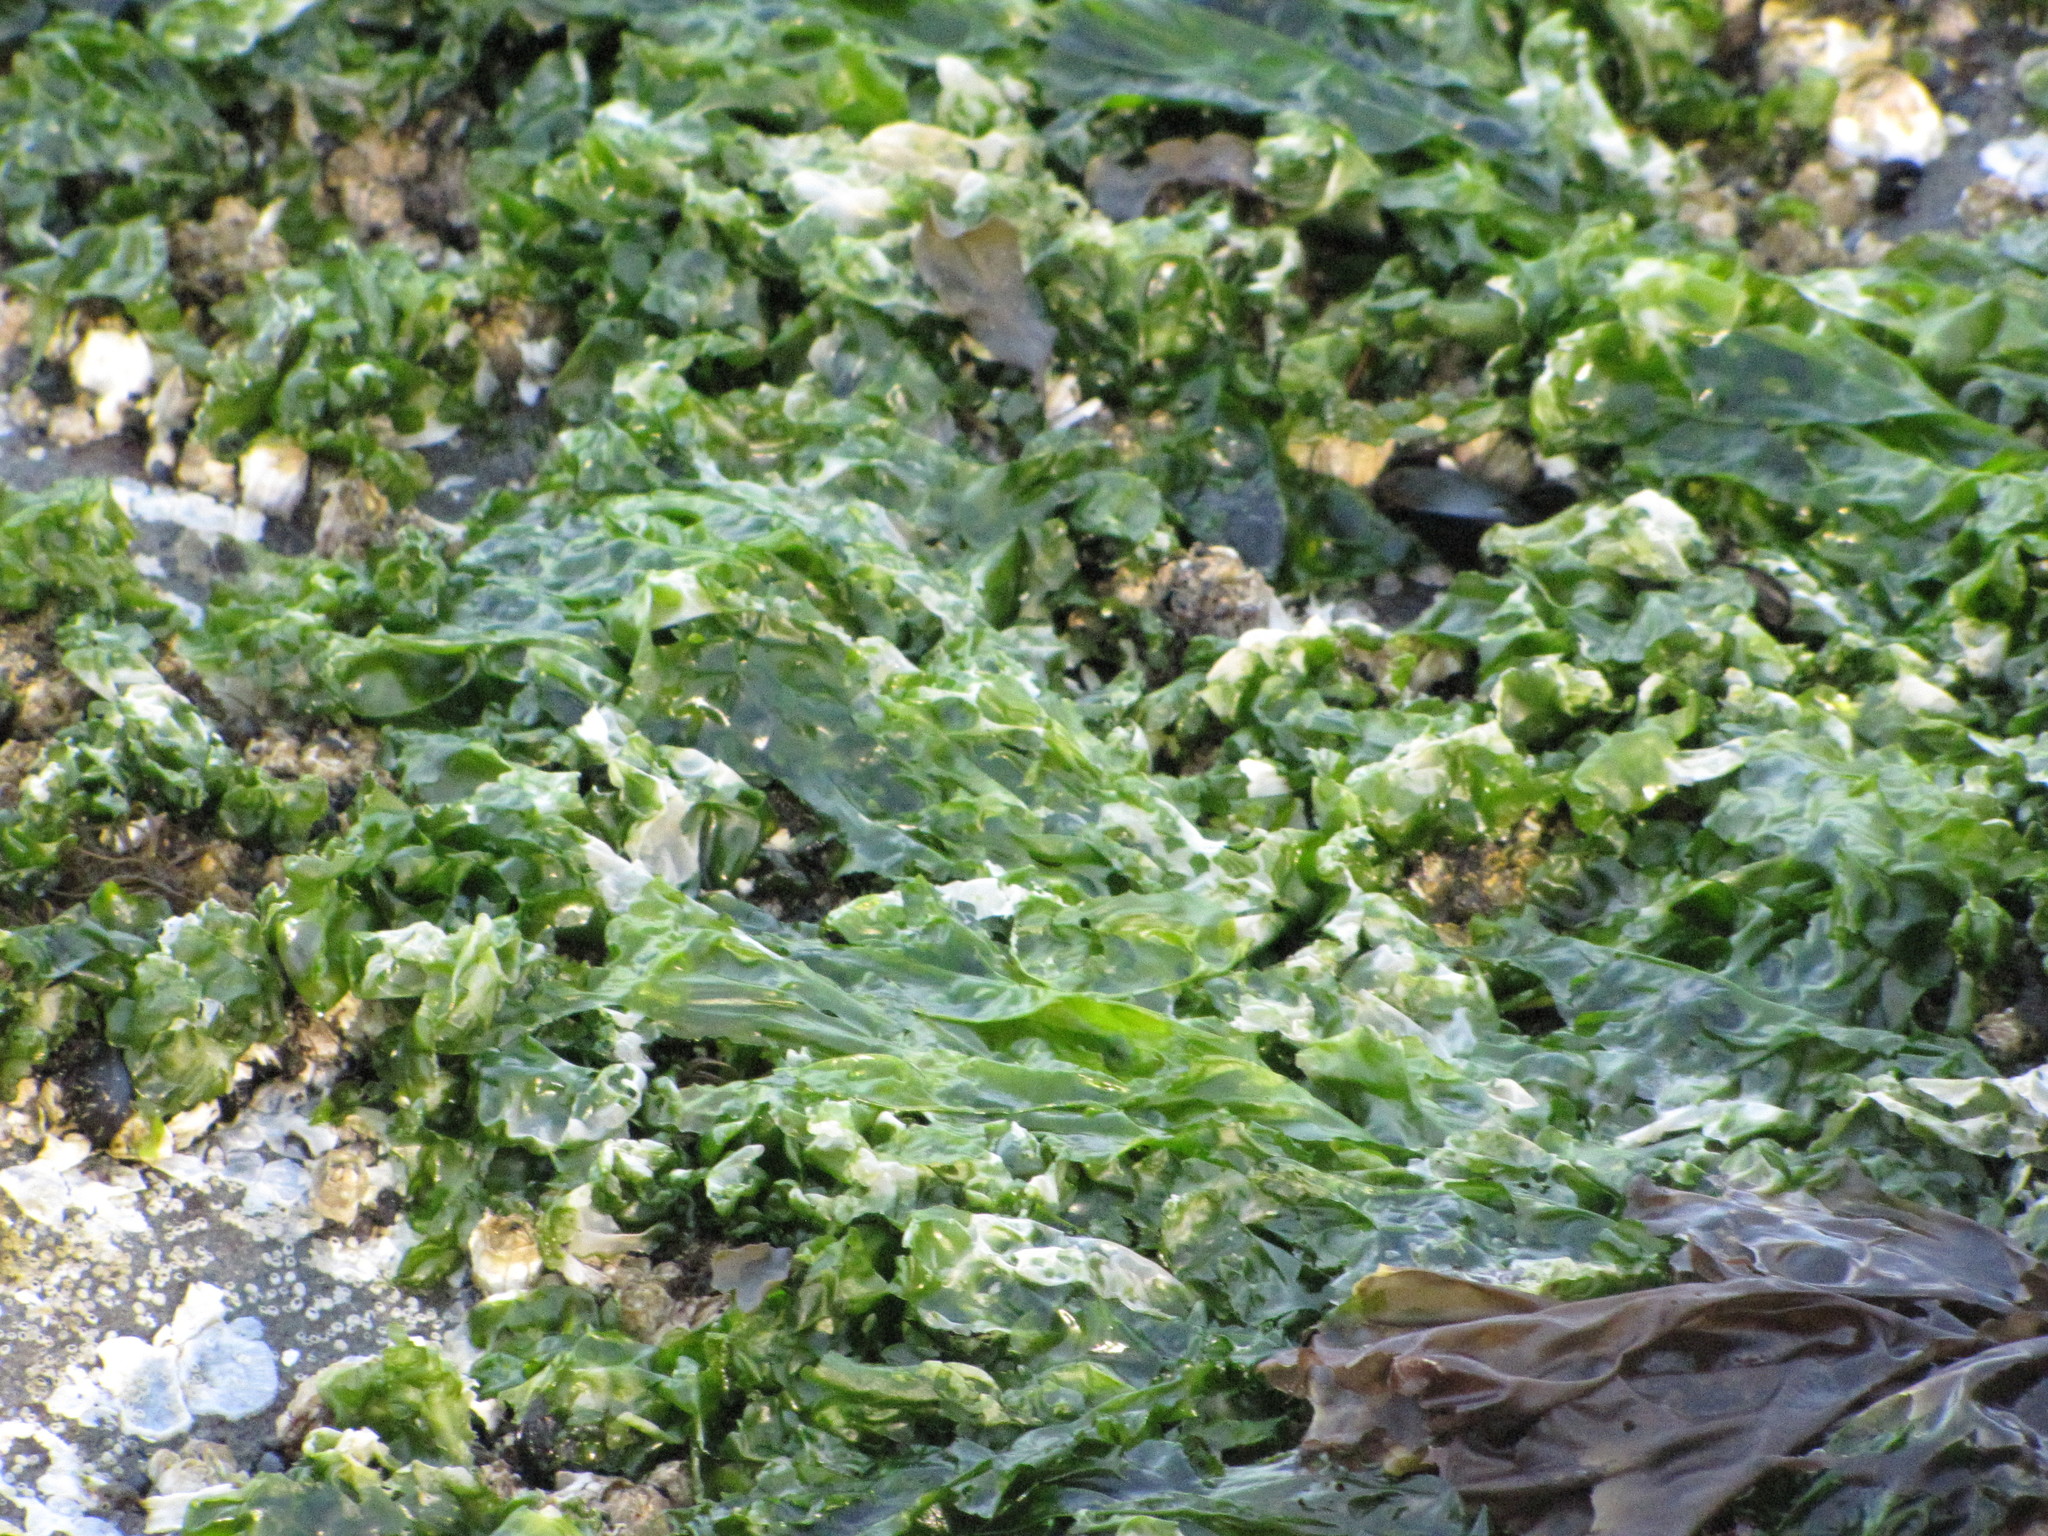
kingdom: Plantae
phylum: Chlorophyta
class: Ulvophyceae
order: Ulvales
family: Ulvaceae
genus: Ulva
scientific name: Ulva lactuca
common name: Sea lettuce
